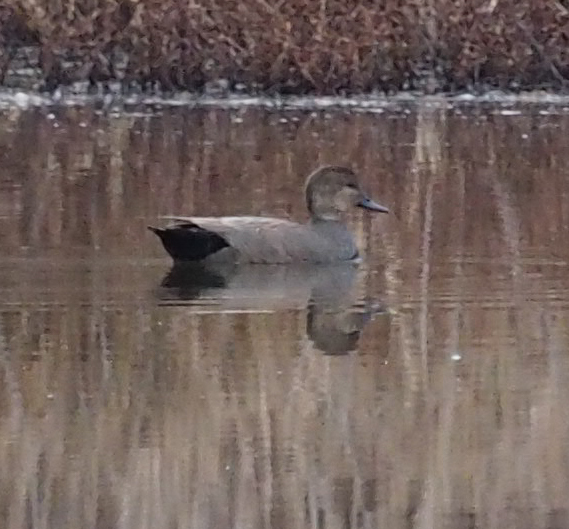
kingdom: Animalia
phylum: Chordata
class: Aves
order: Anseriformes
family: Anatidae
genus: Mareca
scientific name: Mareca strepera
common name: Gadwall
